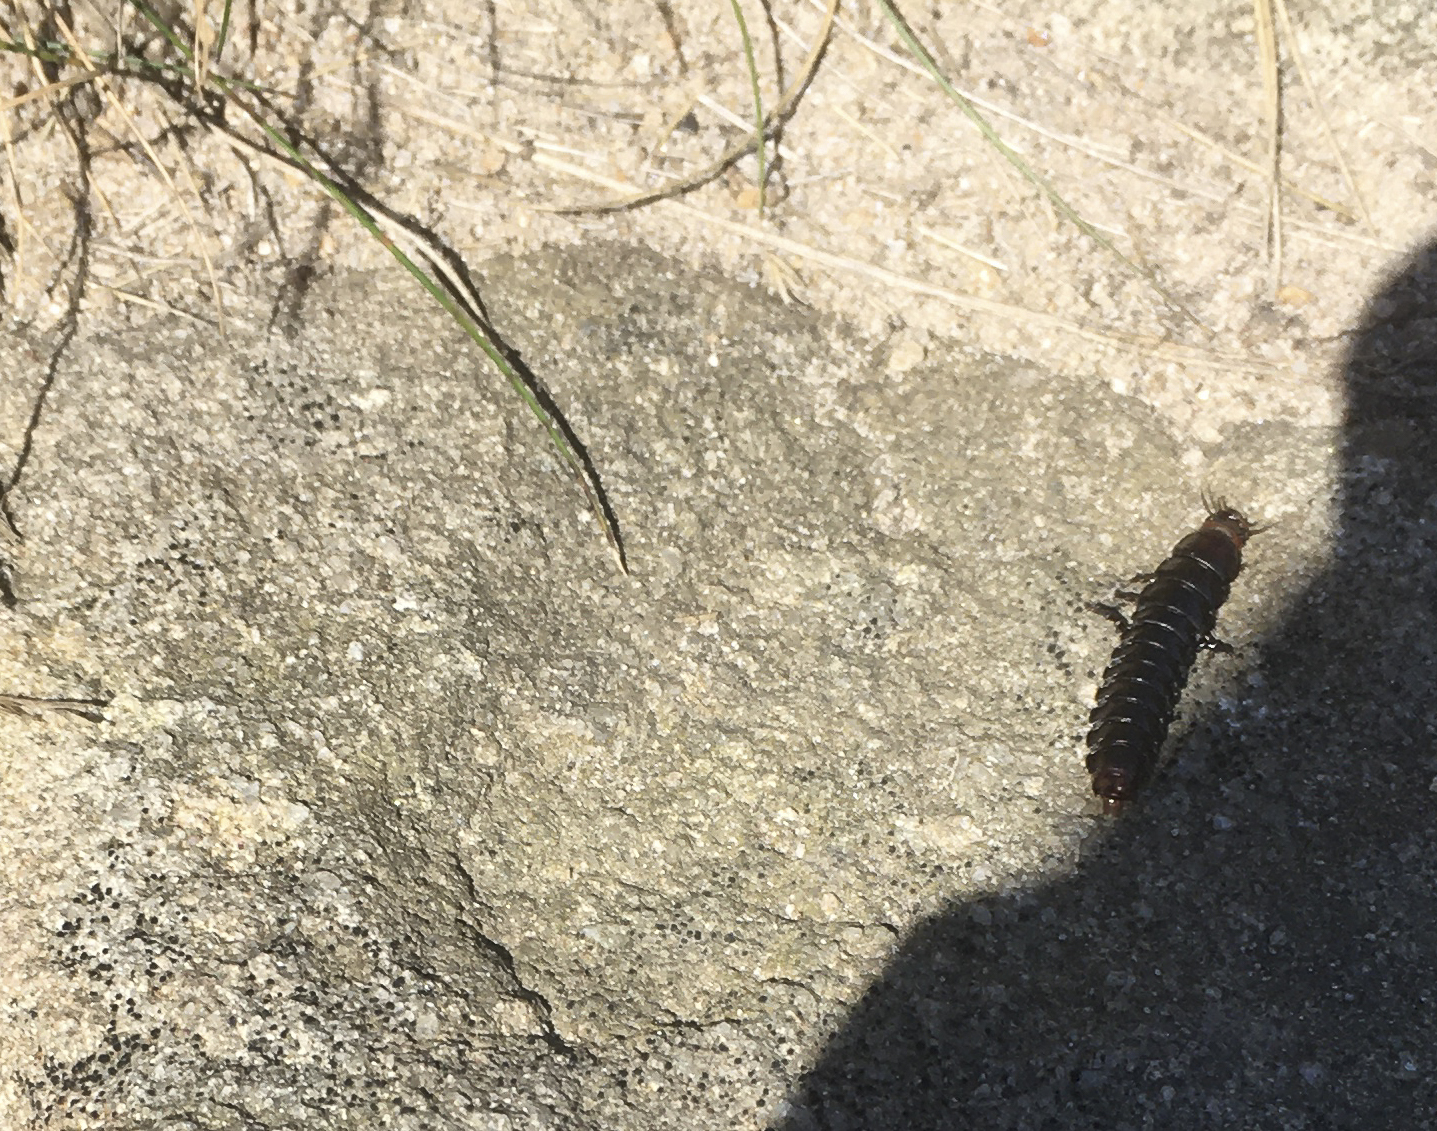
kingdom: Animalia
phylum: Arthropoda
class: Insecta
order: Coleoptera
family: Carabidae
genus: Carabus
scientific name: Carabus violaceus
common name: Violet ground beetle
